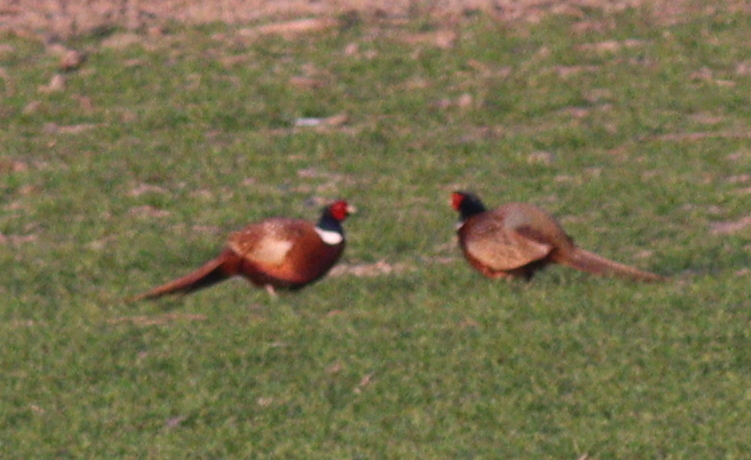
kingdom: Animalia
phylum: Chordata
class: Aves
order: Galliformes
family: Phasianidae
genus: Phasianus
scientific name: Phasianus colchicus
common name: Common pheasant
